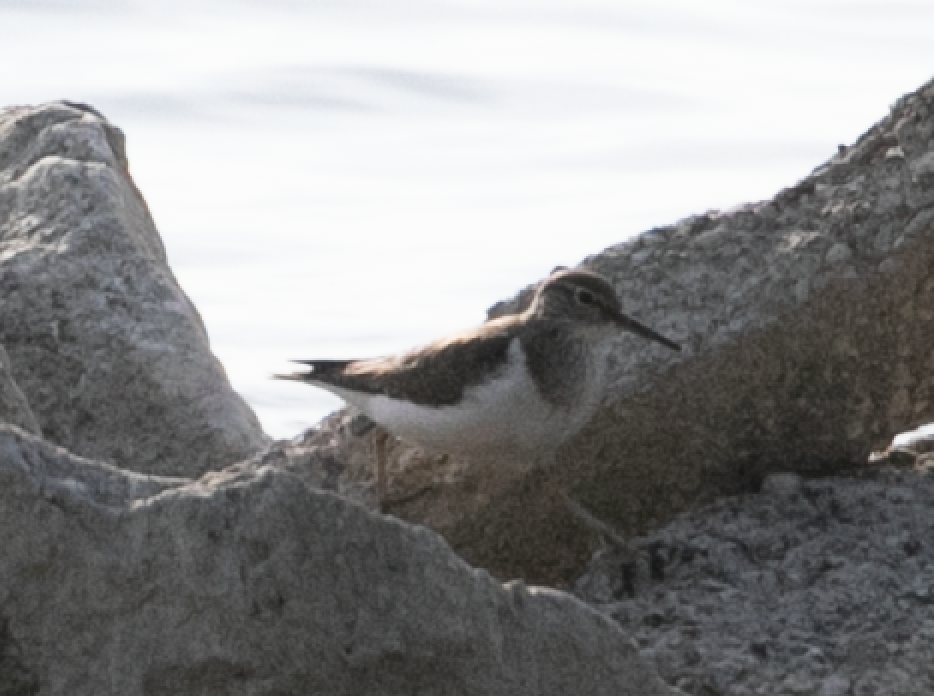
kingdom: Animalia
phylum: Chordata
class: Aves
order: Charadriiformes
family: Scolopacidae
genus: Actitis
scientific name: Actitis hypoleucos
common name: Common sandpiper
